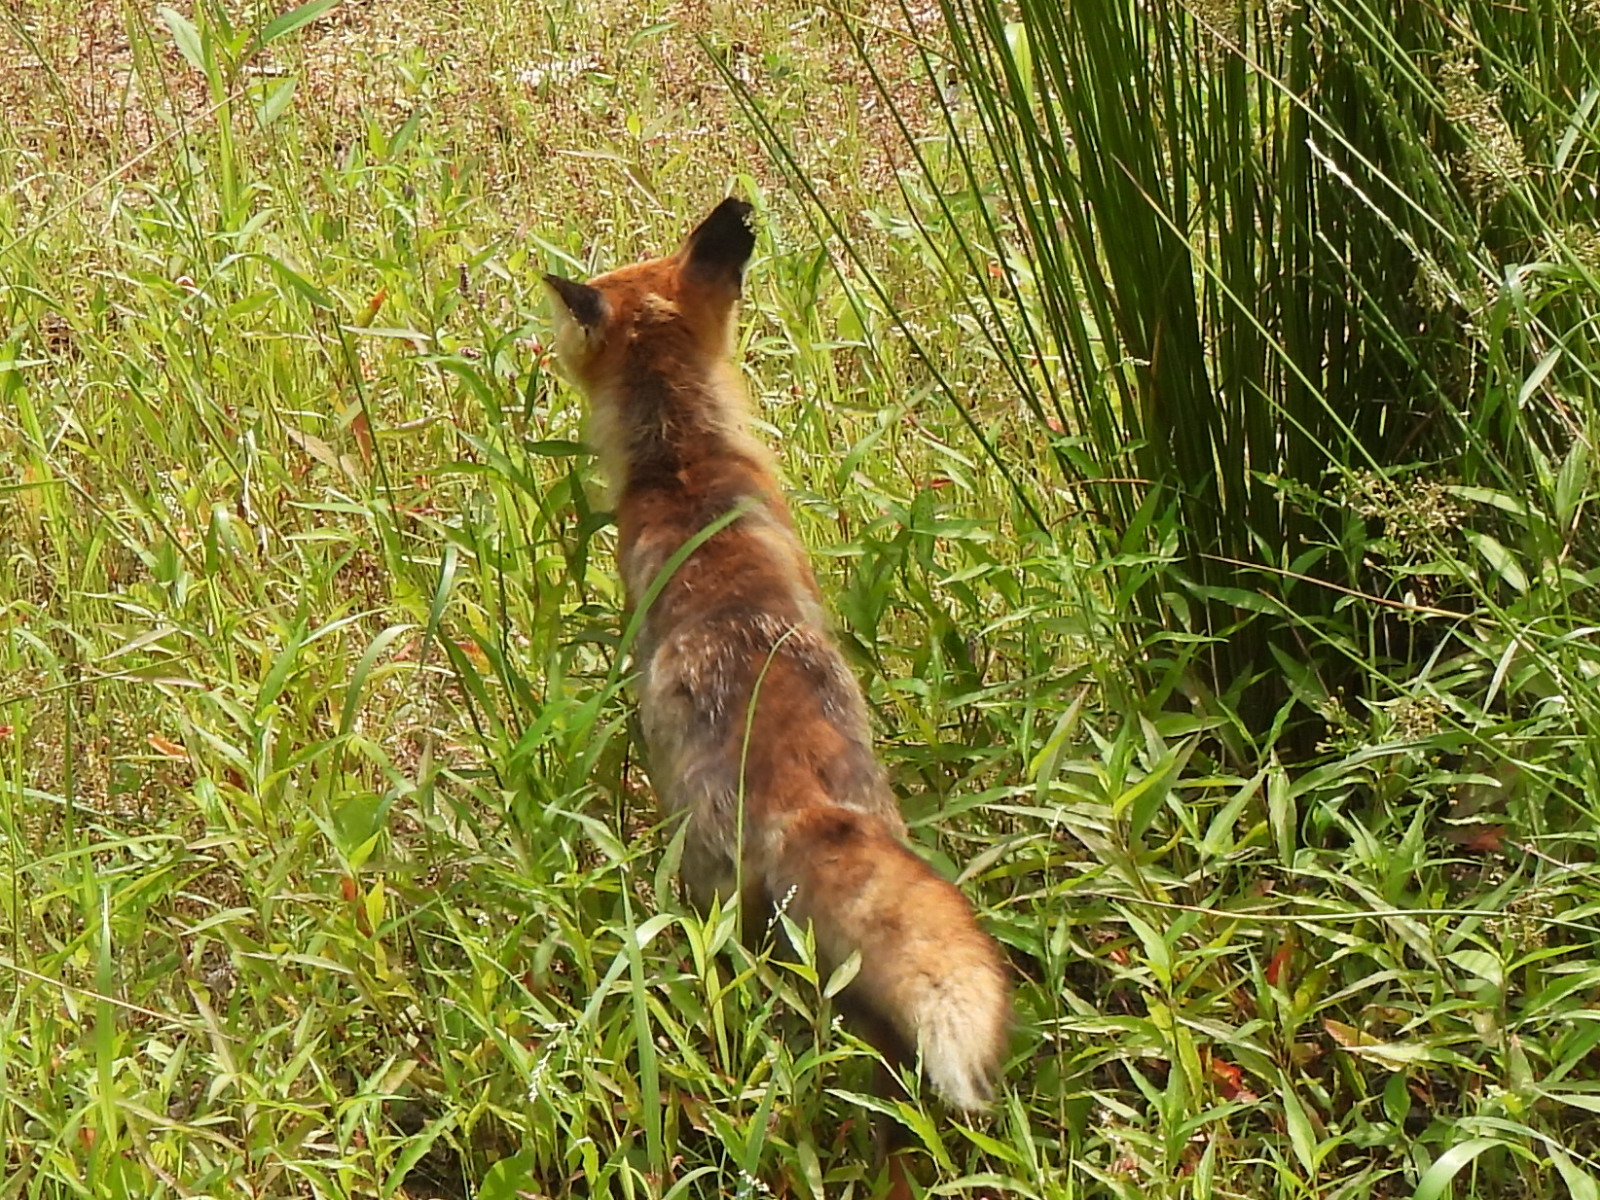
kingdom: Animalia
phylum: Chordata
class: Mammalia
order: Carnivora
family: Canidae
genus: Vulpes
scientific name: Vulpes vulpes
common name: Red fox
